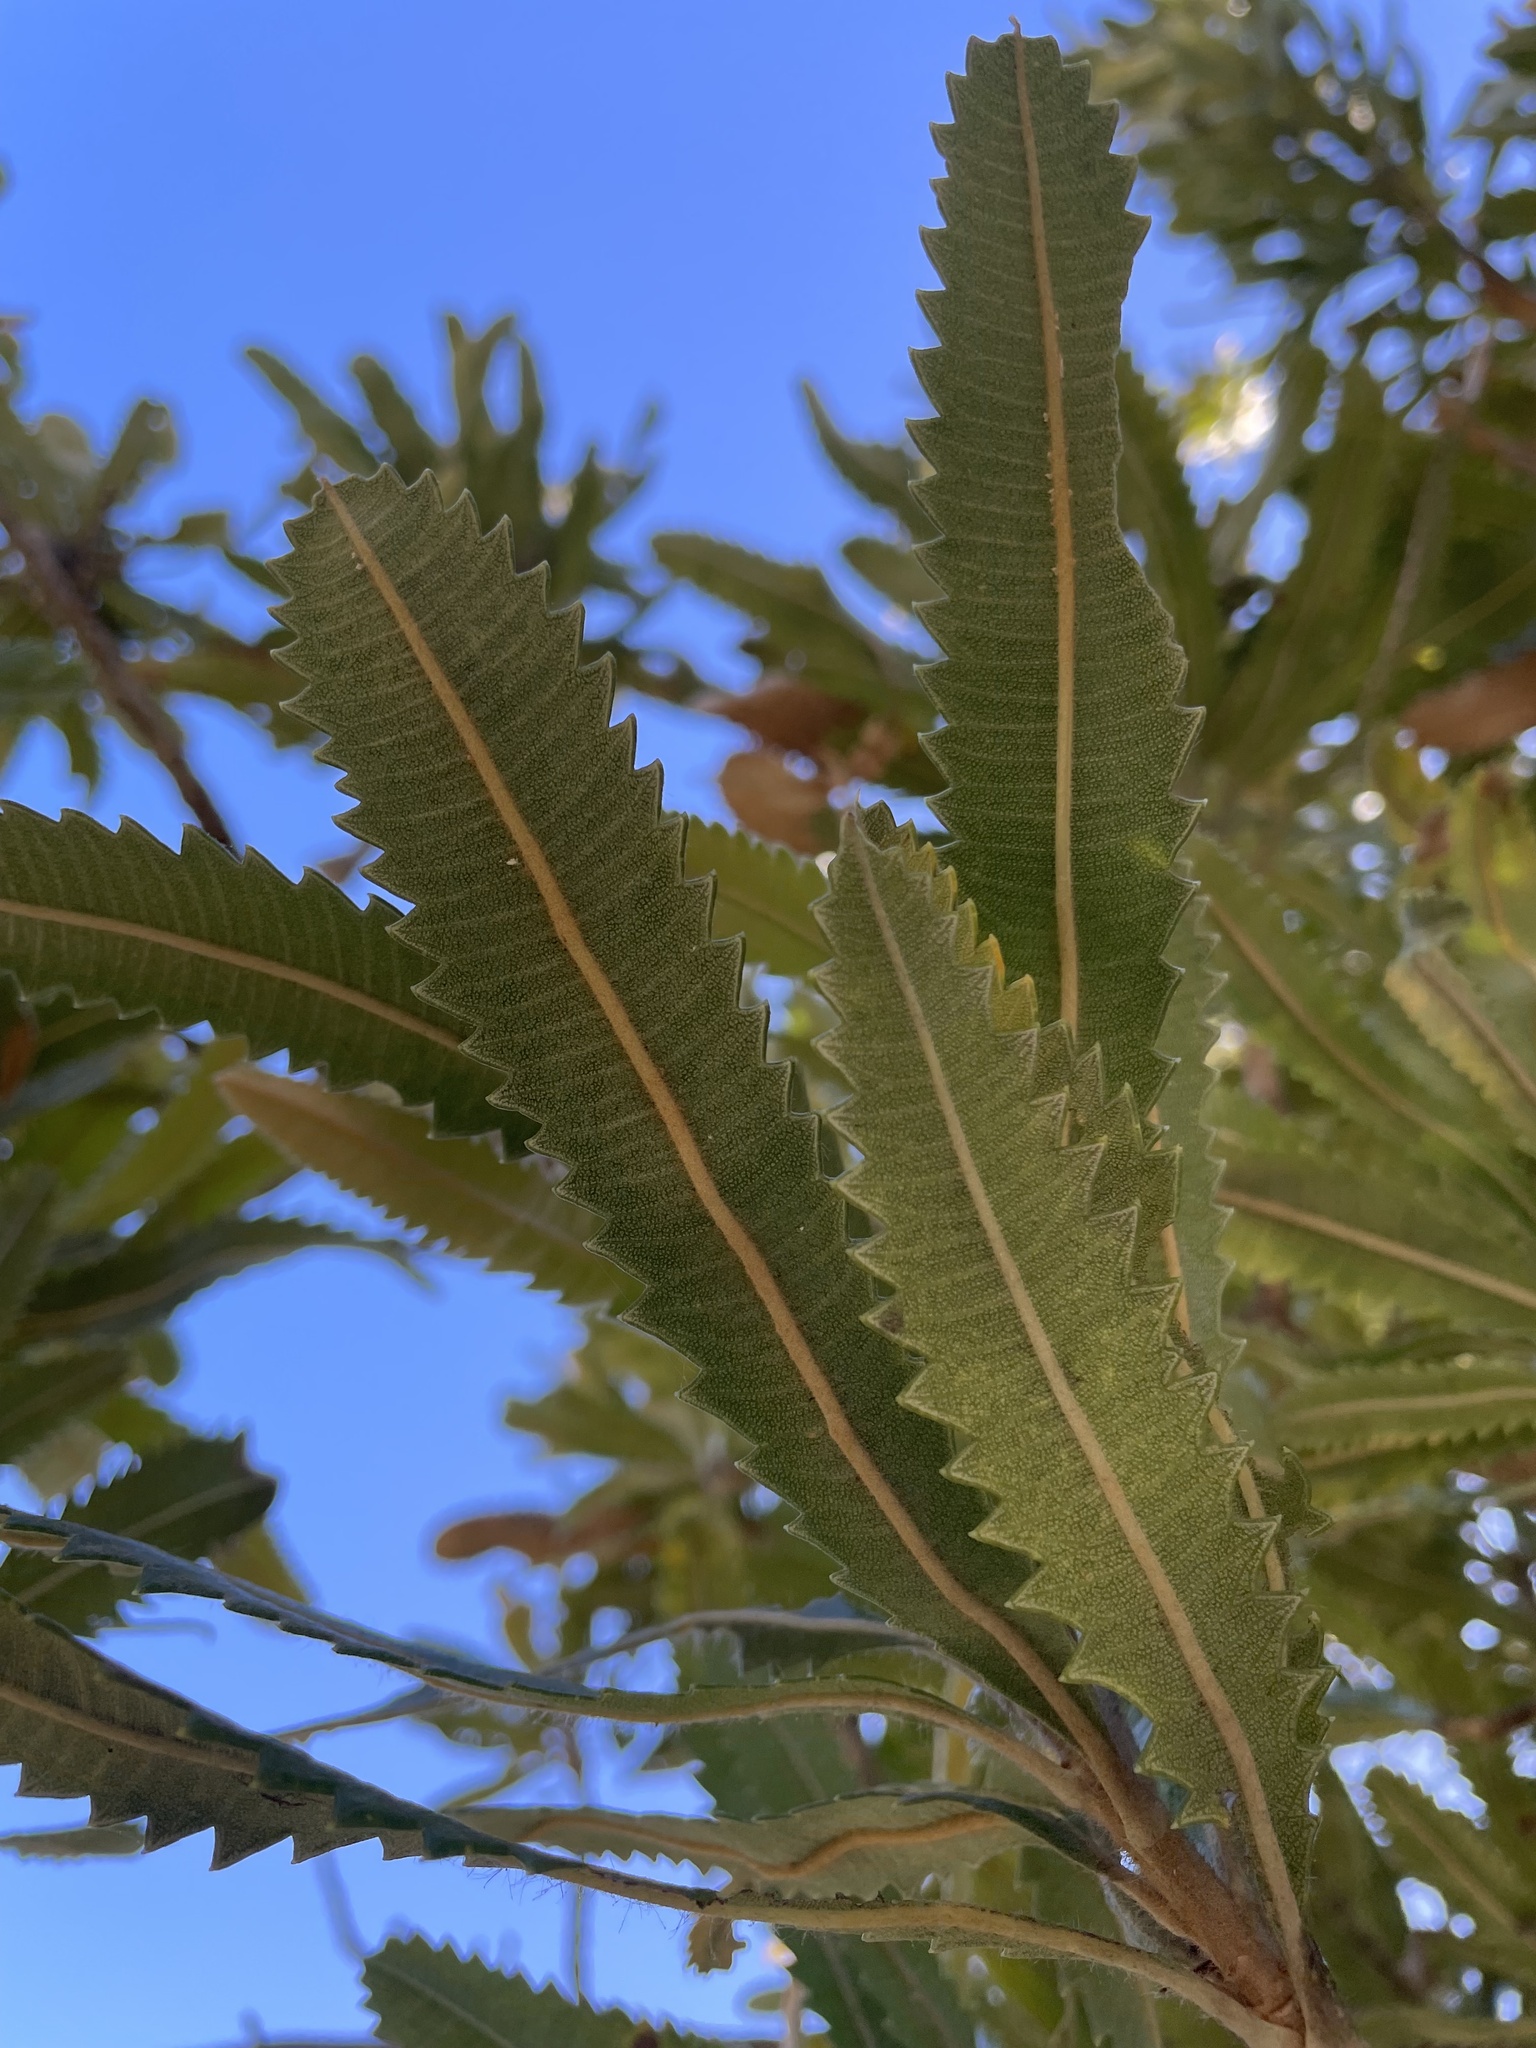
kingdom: Plantae
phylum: Tracheophyta
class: Magnoliopsida
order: Proteales
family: Proteaceae
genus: Banksia
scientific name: Banksia serrata
